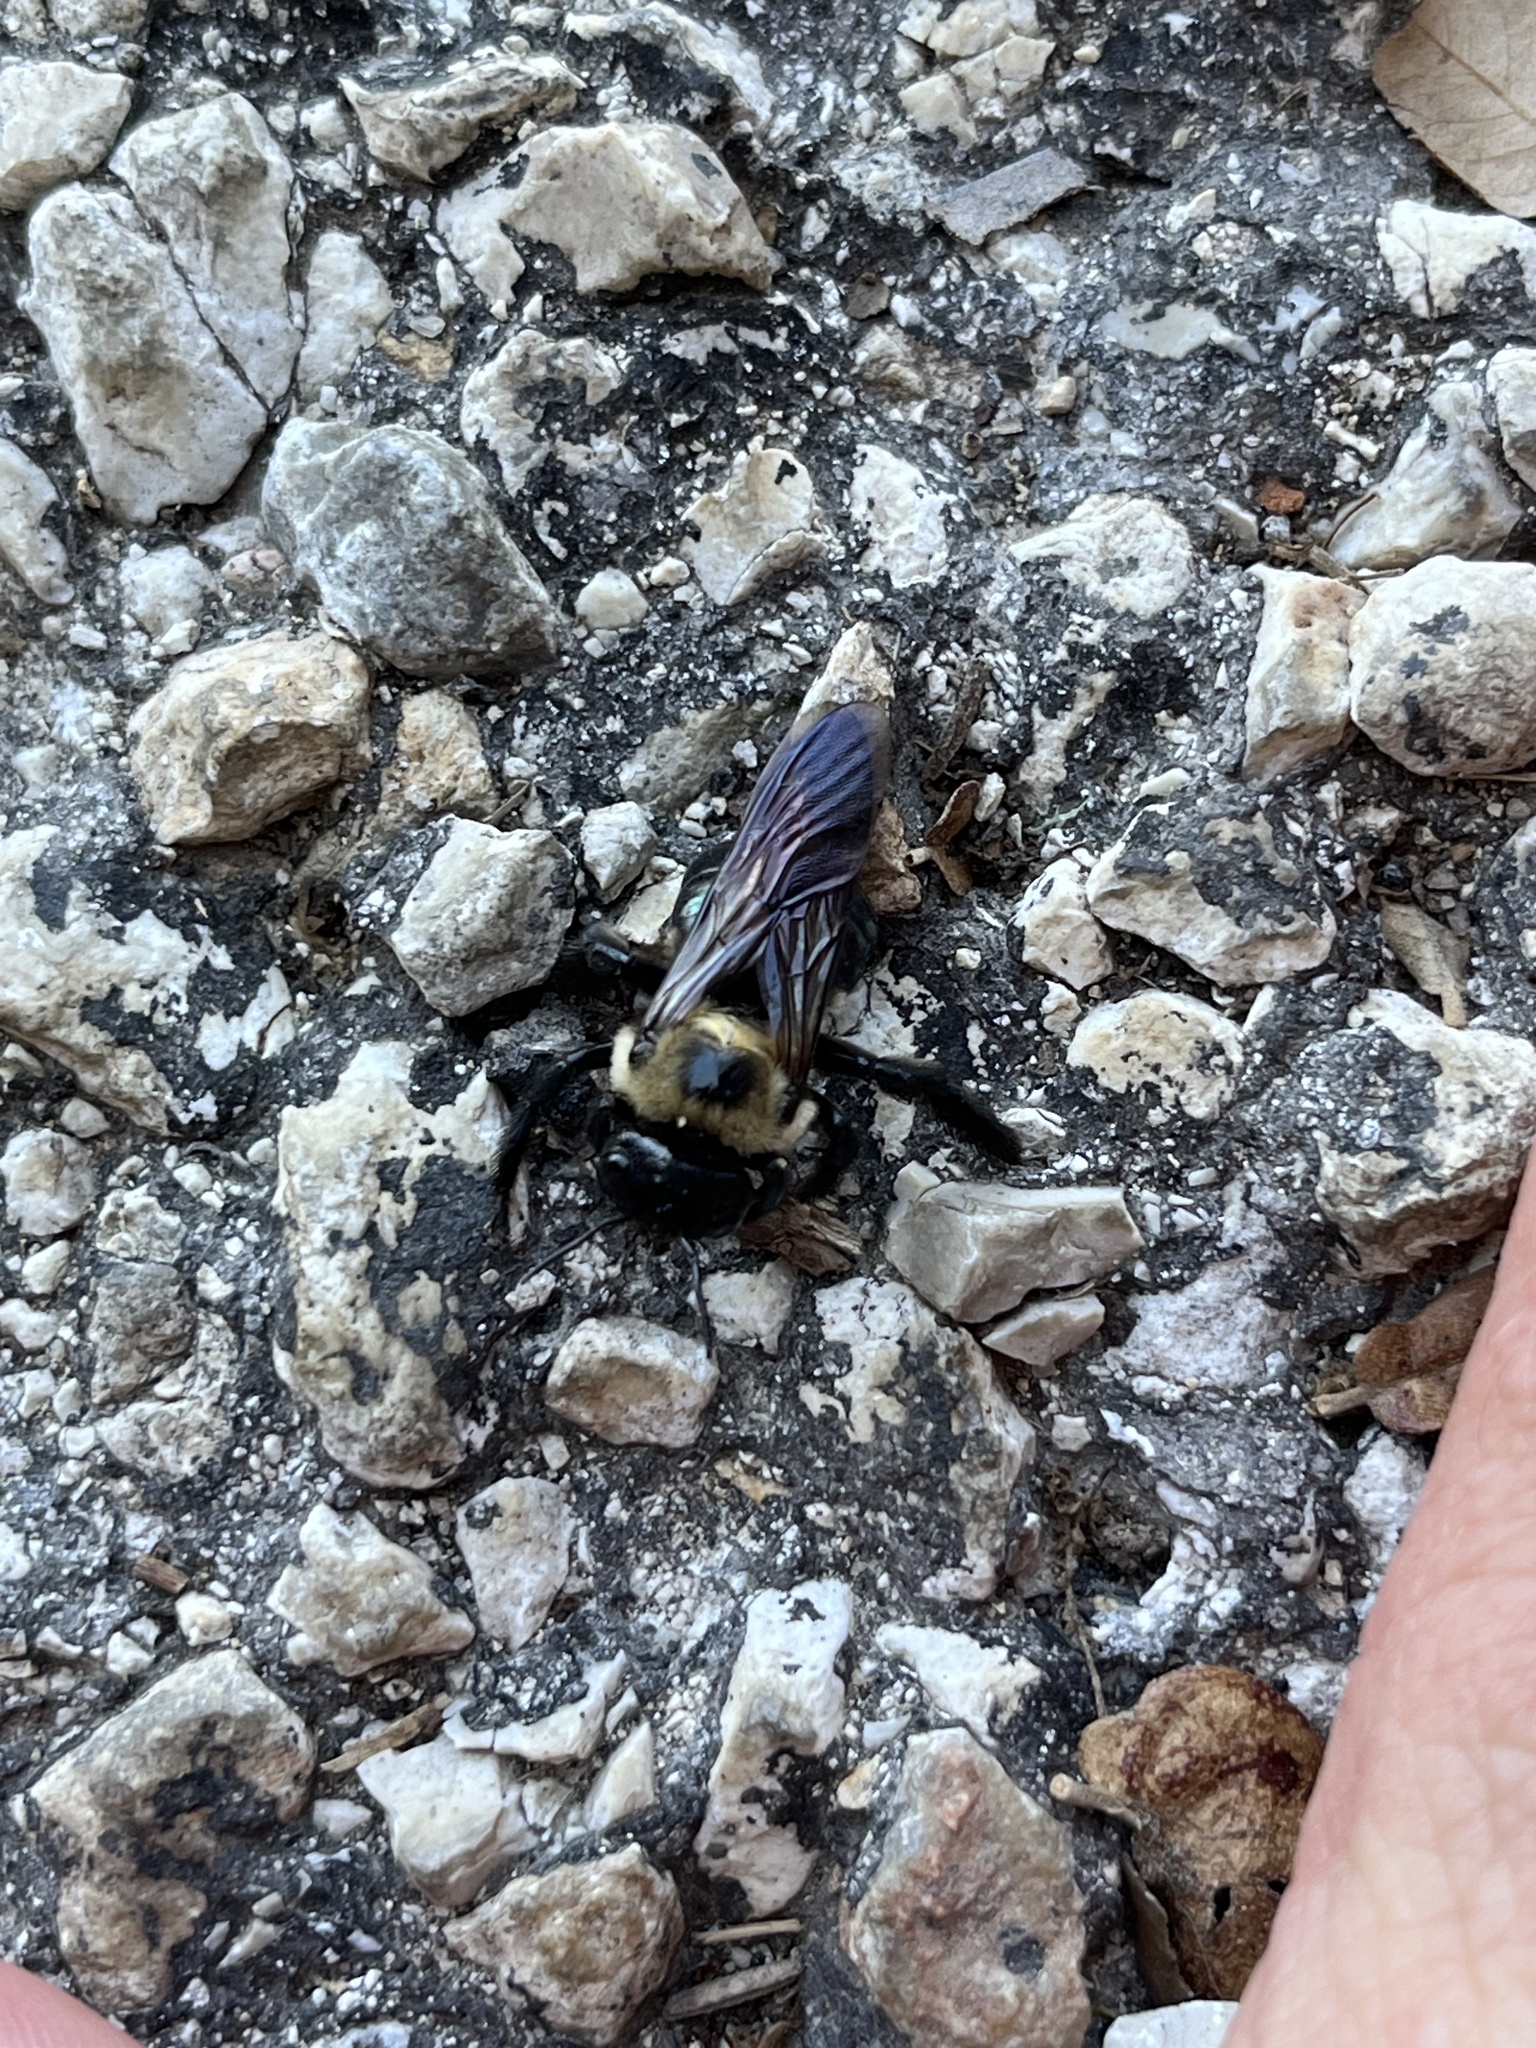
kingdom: Animalia
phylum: Arthropoda
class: Insecta
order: Hymenoptera
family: Apidae
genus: Xylocopa
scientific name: Xylocopa virginica
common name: Carpenter bee
